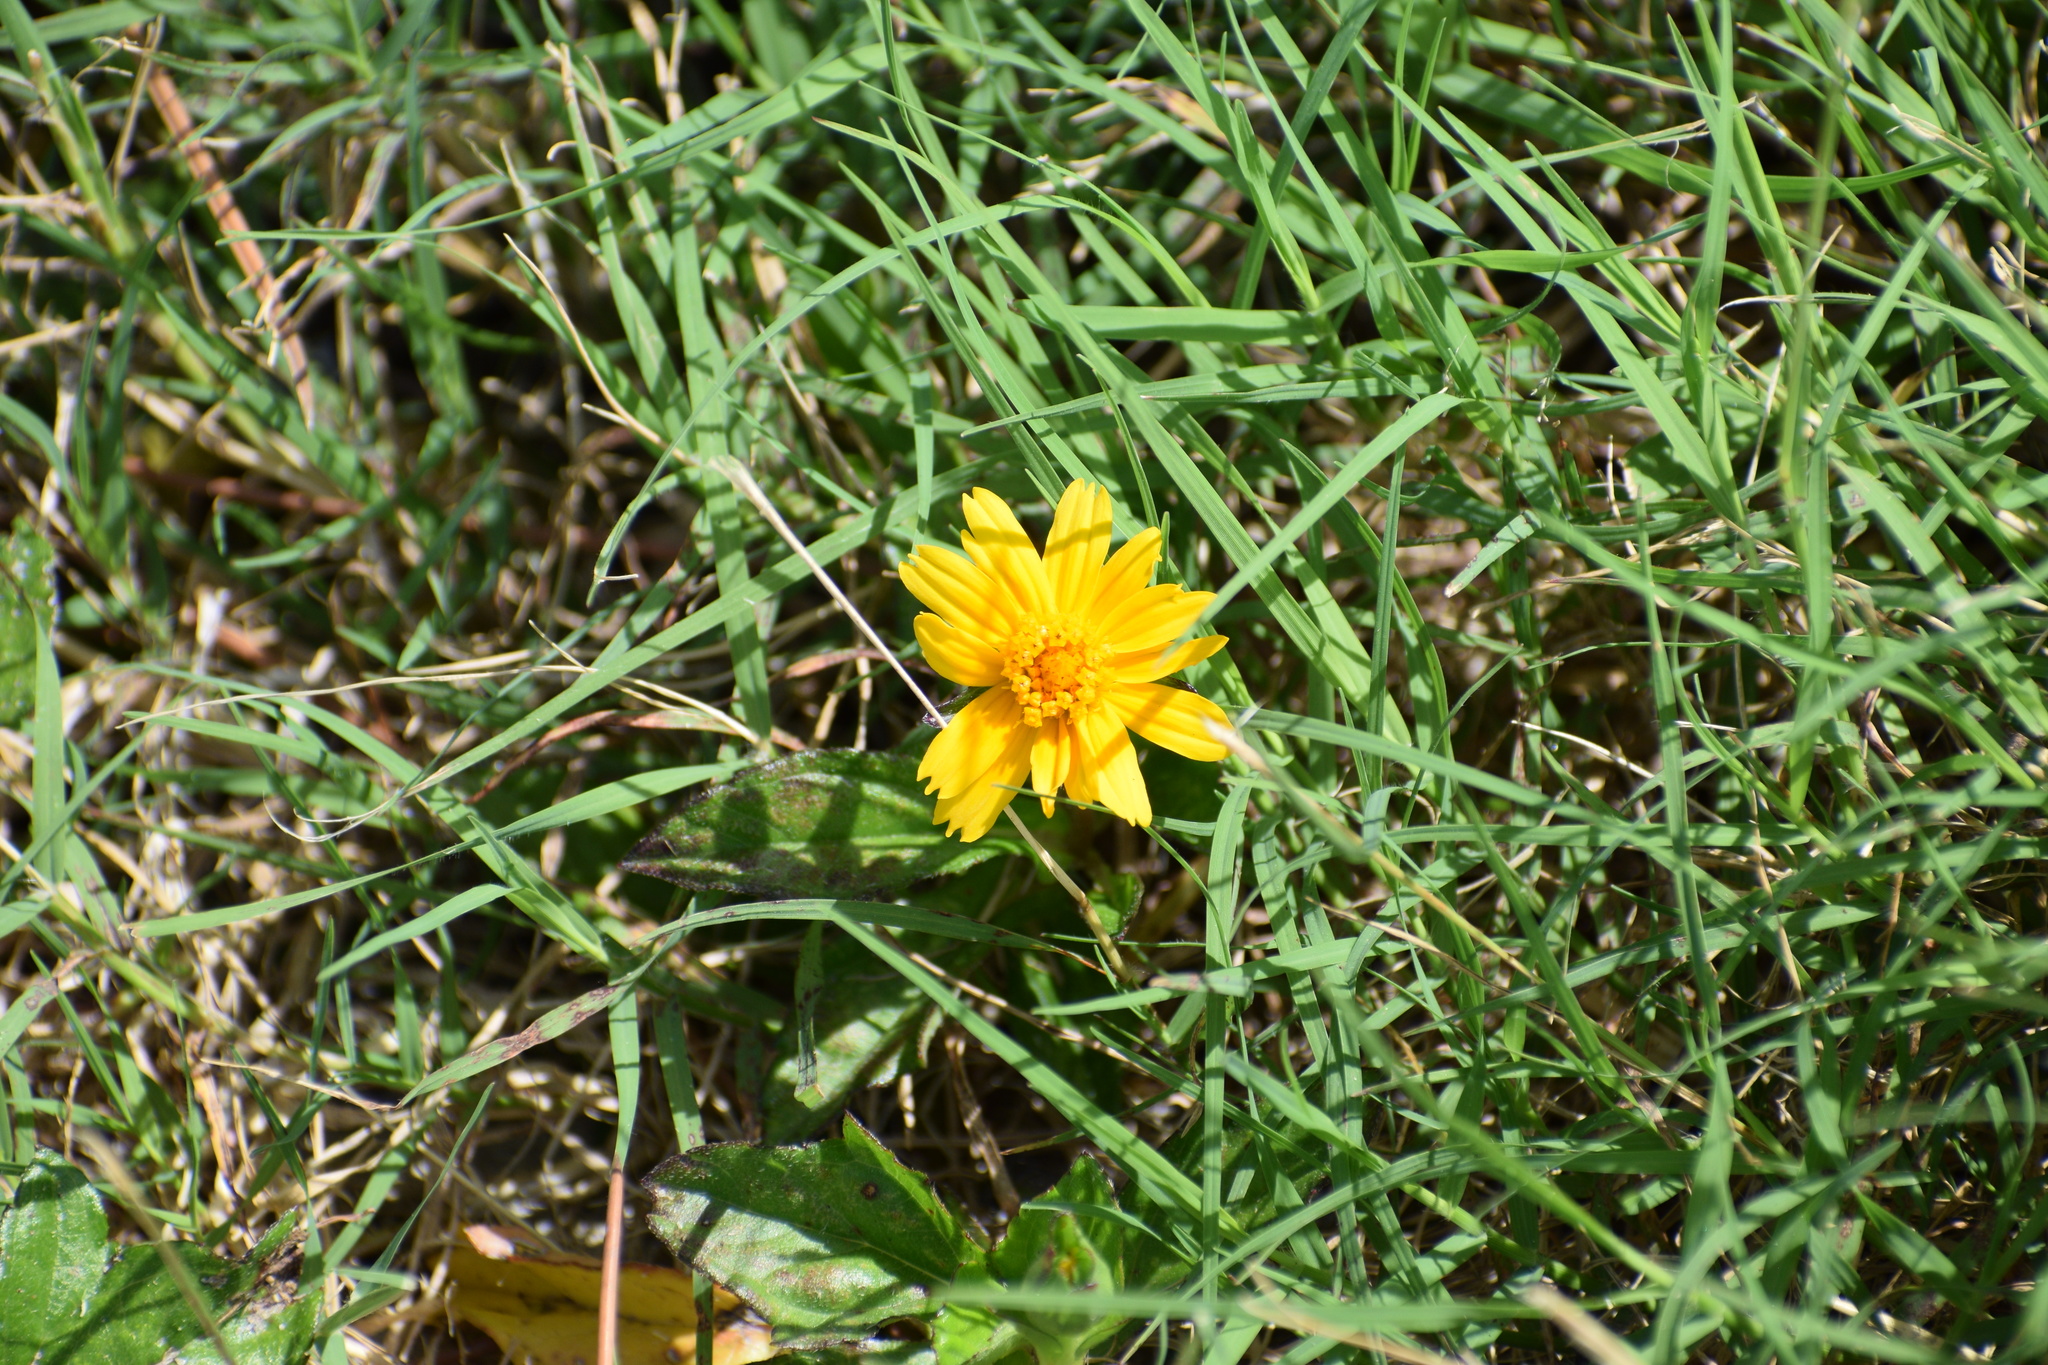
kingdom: Plantae
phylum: Tracheophyta
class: Magnoliopsida
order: Asterales
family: Asteraceae
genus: Sphagneticola
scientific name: Sphagneticola trilobata
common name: Bay biscayne creeping-oxeye
